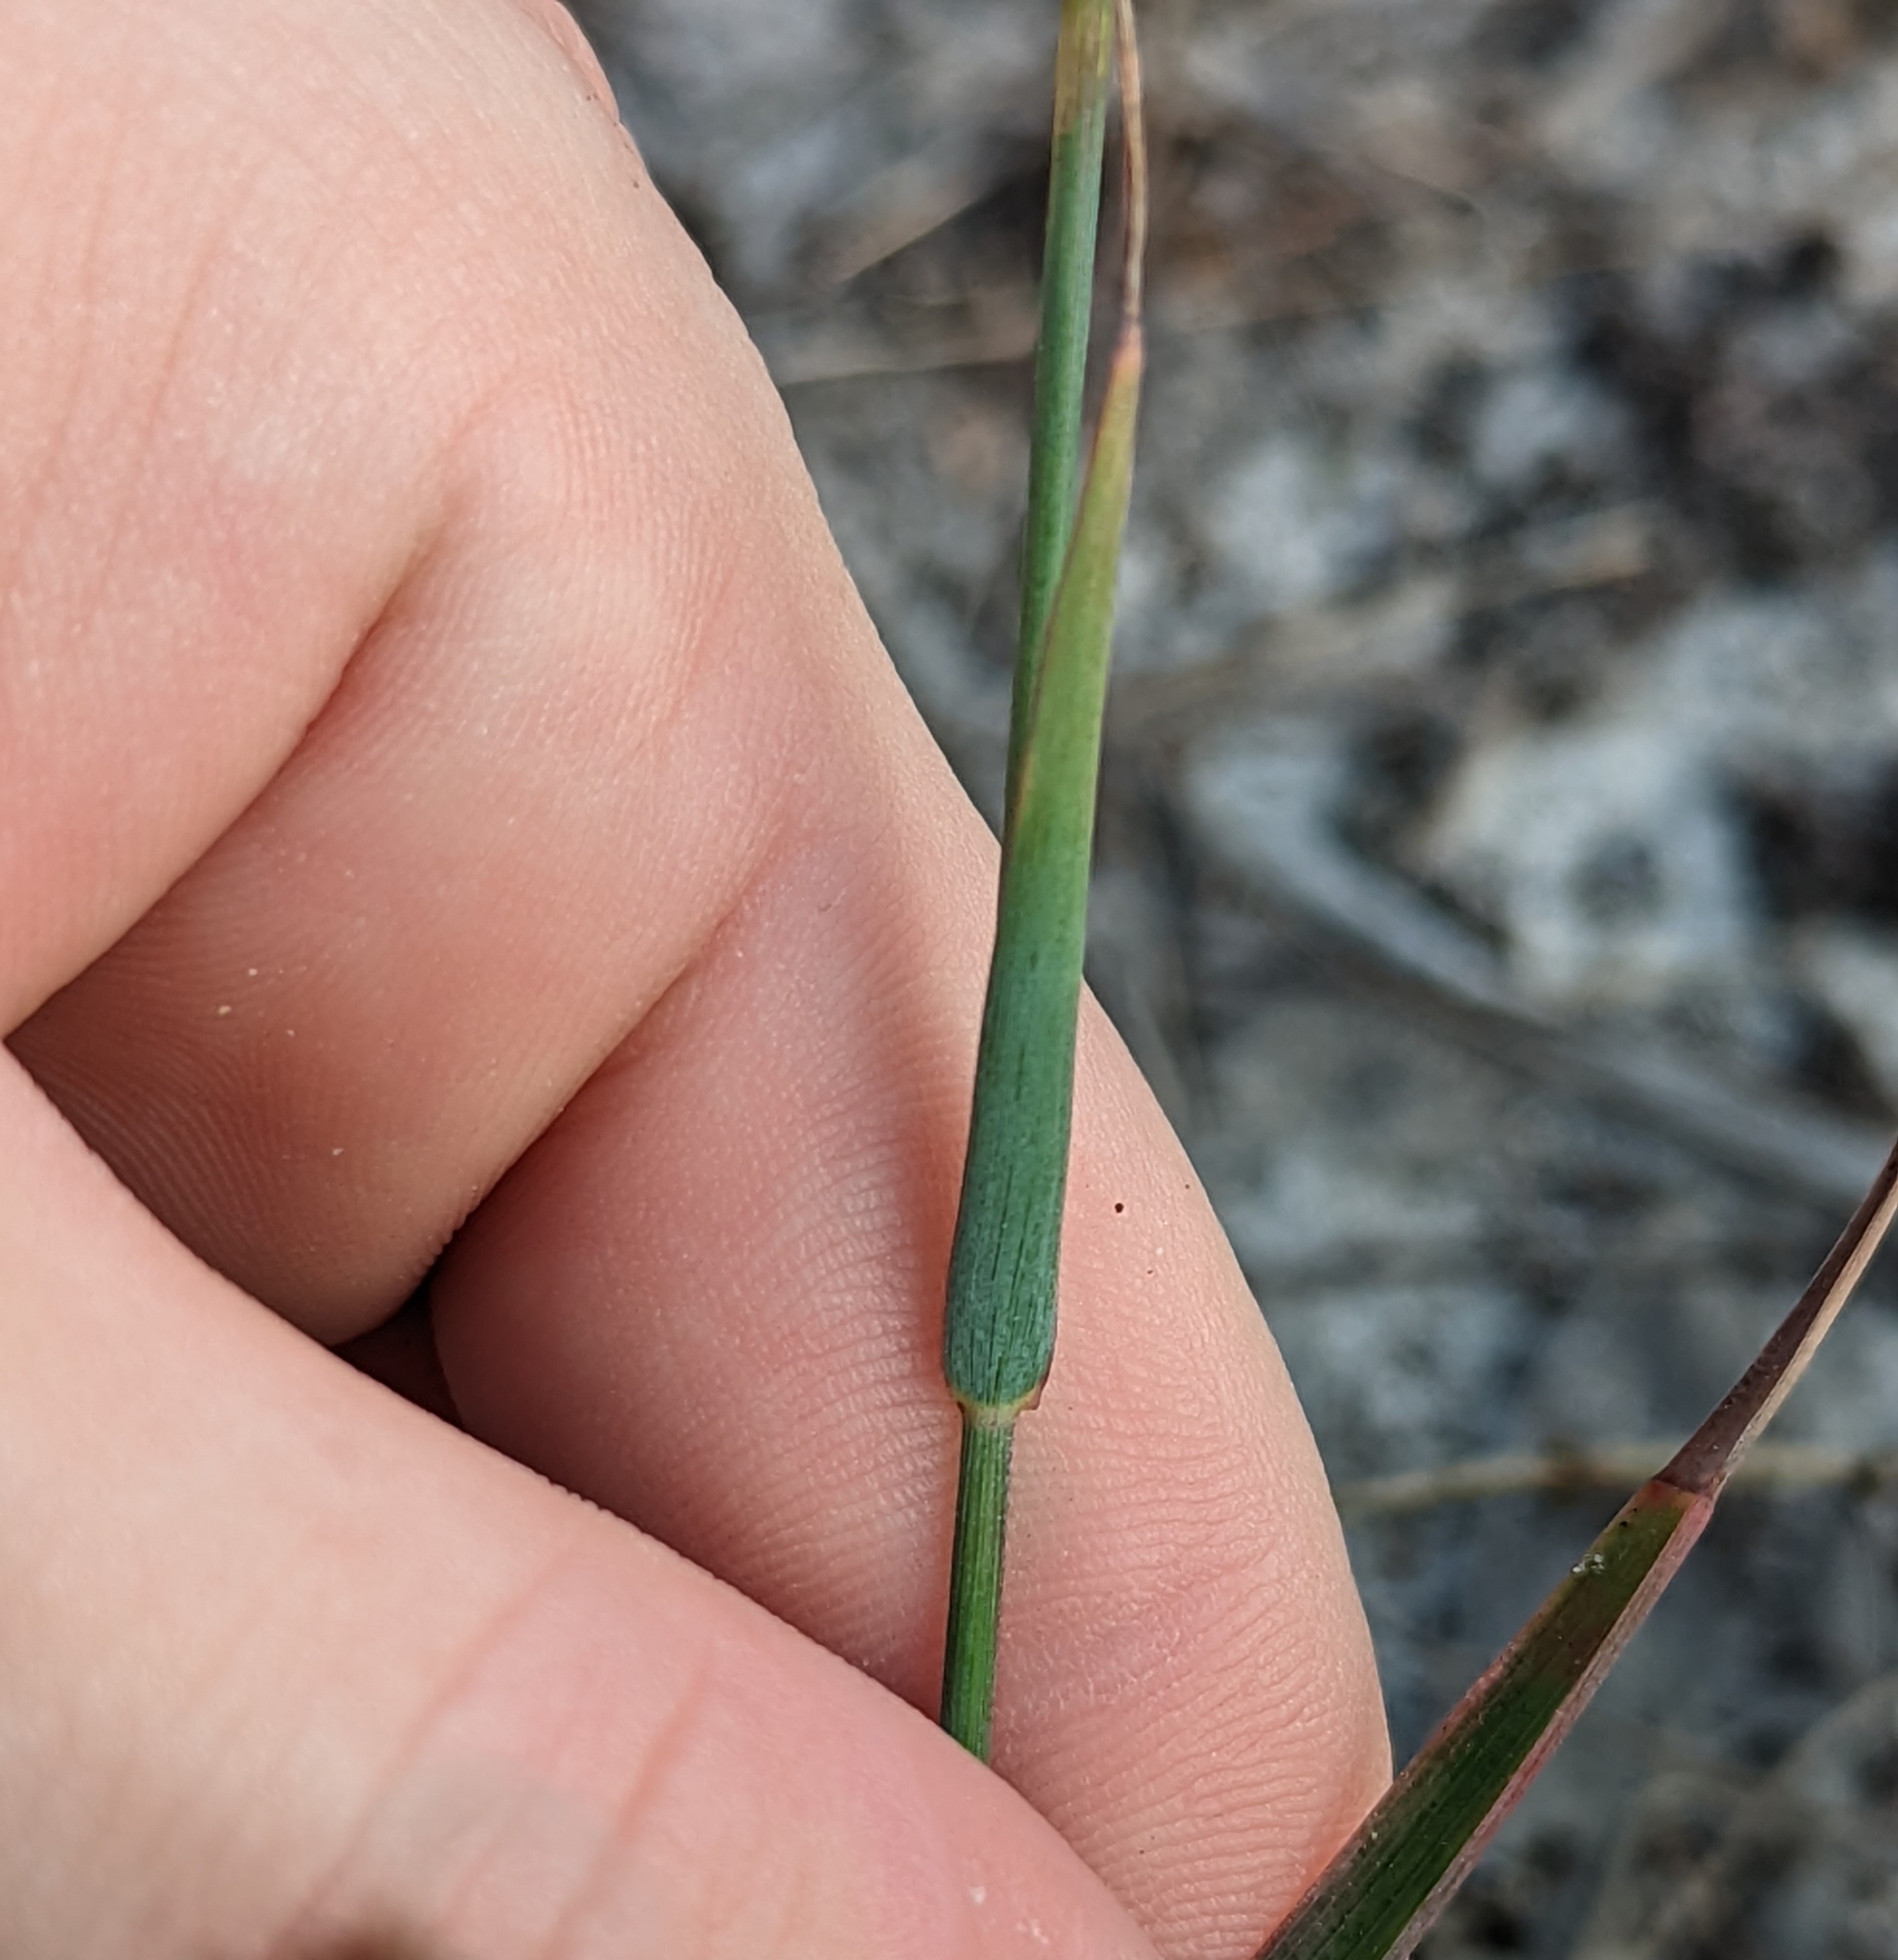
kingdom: Plantae
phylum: Tracheophyta
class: Liliopsida
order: Poales
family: Poaceae
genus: Melinis
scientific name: Melinis repens
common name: Rose natal grass
